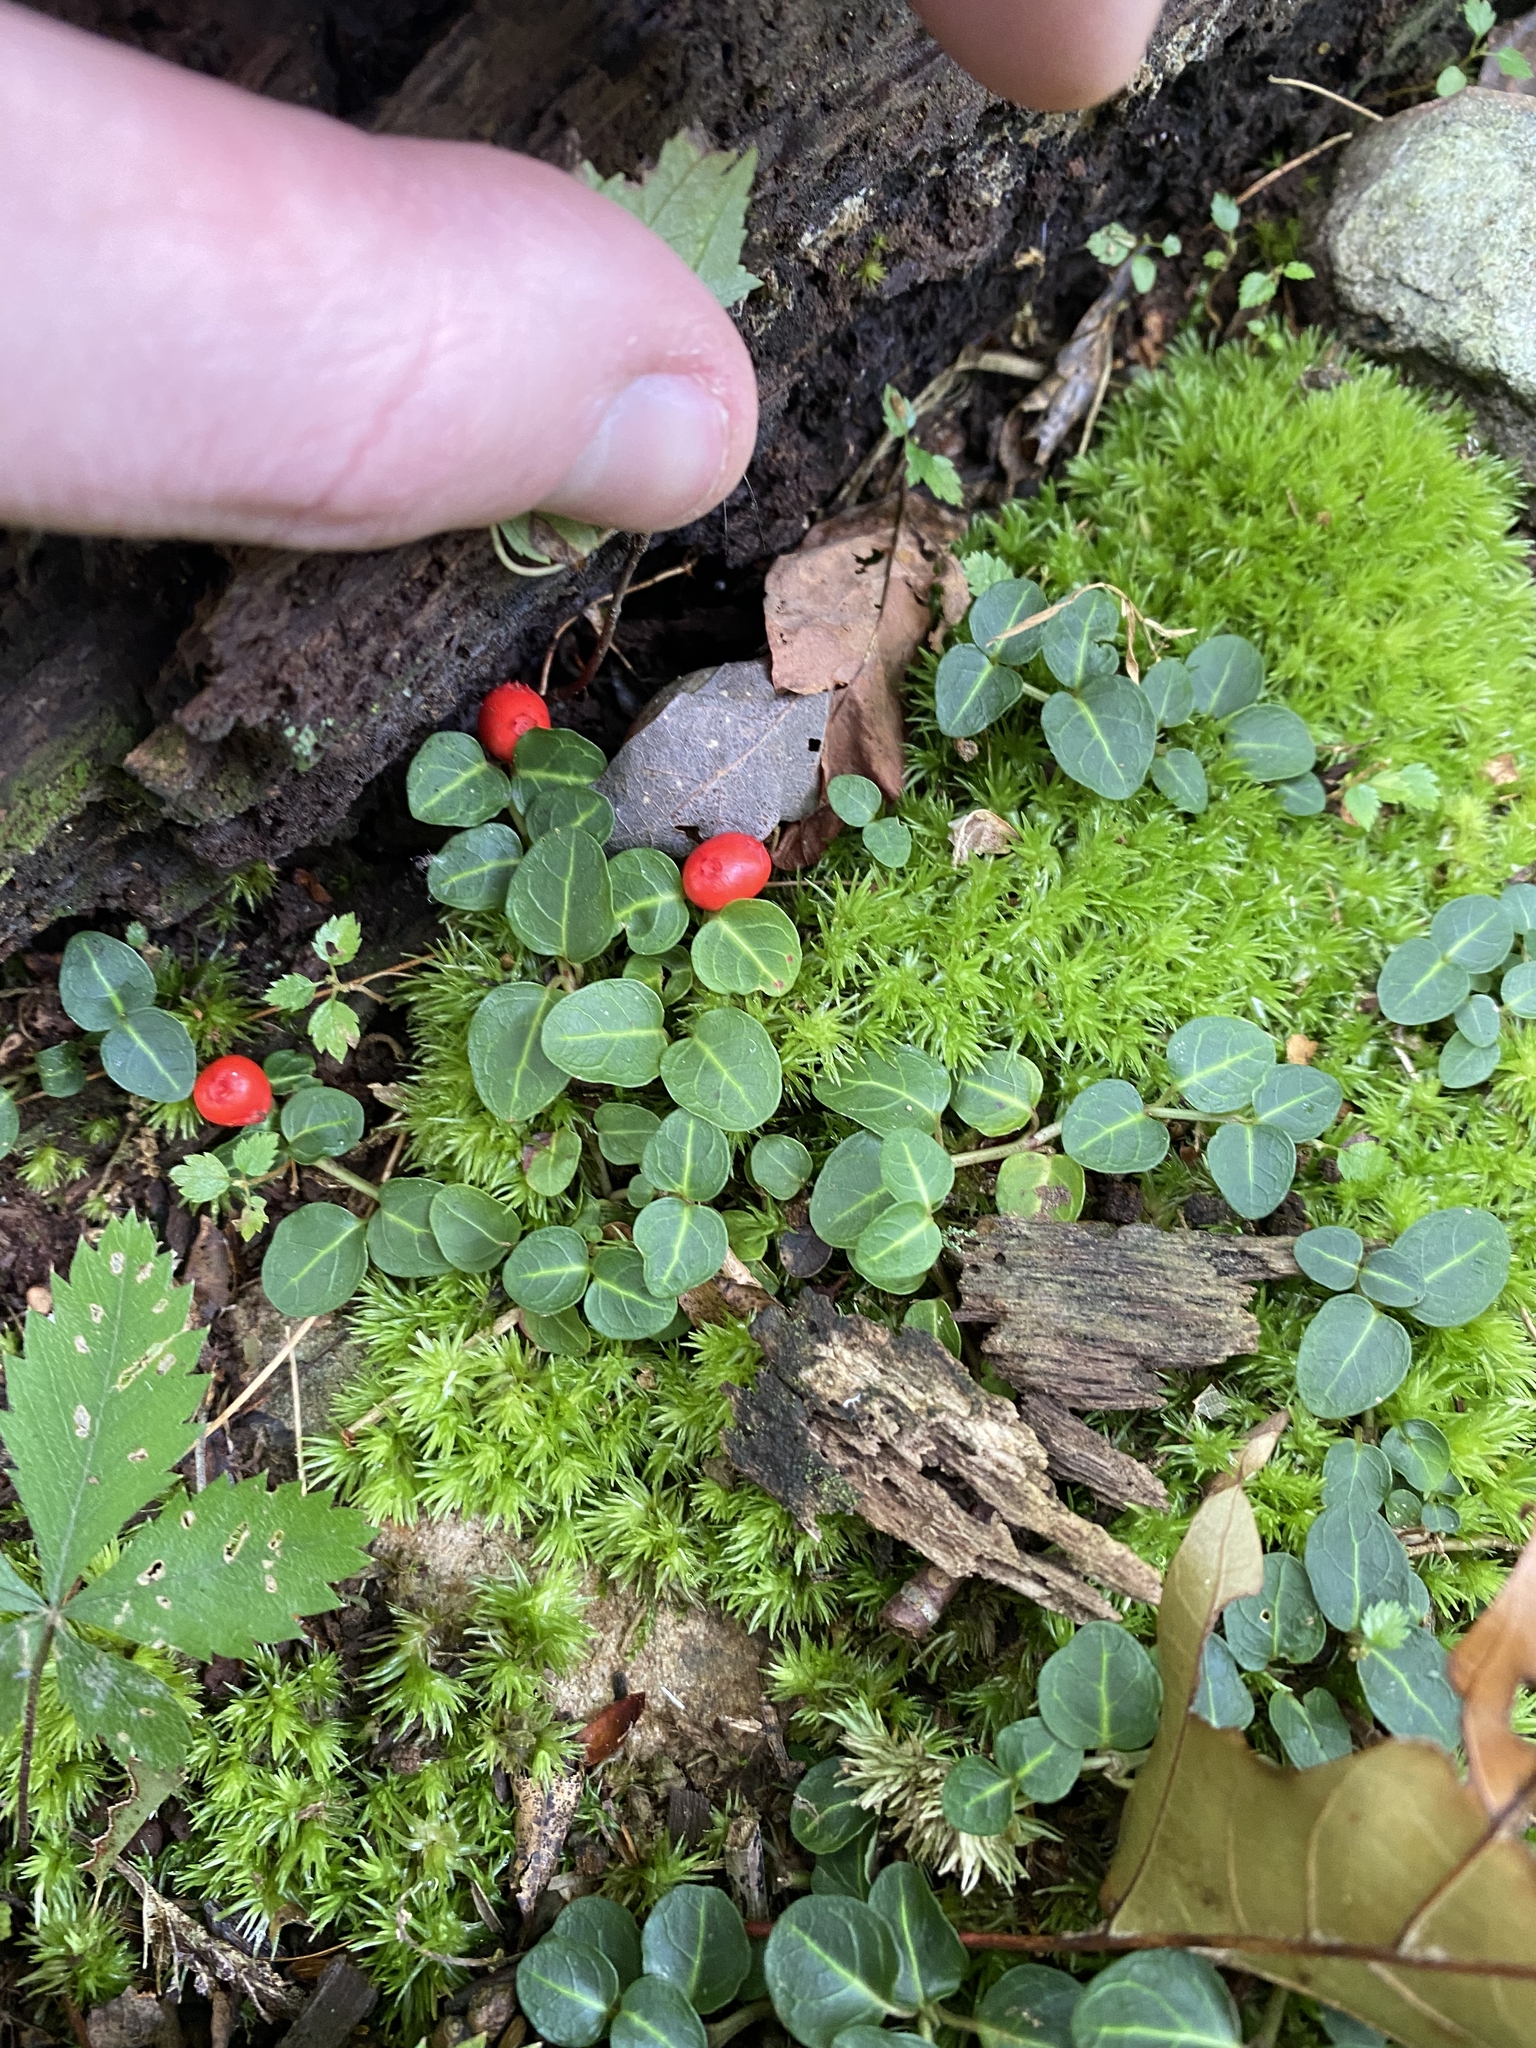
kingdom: Plantae
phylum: Tracheophyta
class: Magnoliopsida
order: Gentianales
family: Rubiaceae
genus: Mitchella
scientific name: Mitchella repens
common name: Partridge-berry
